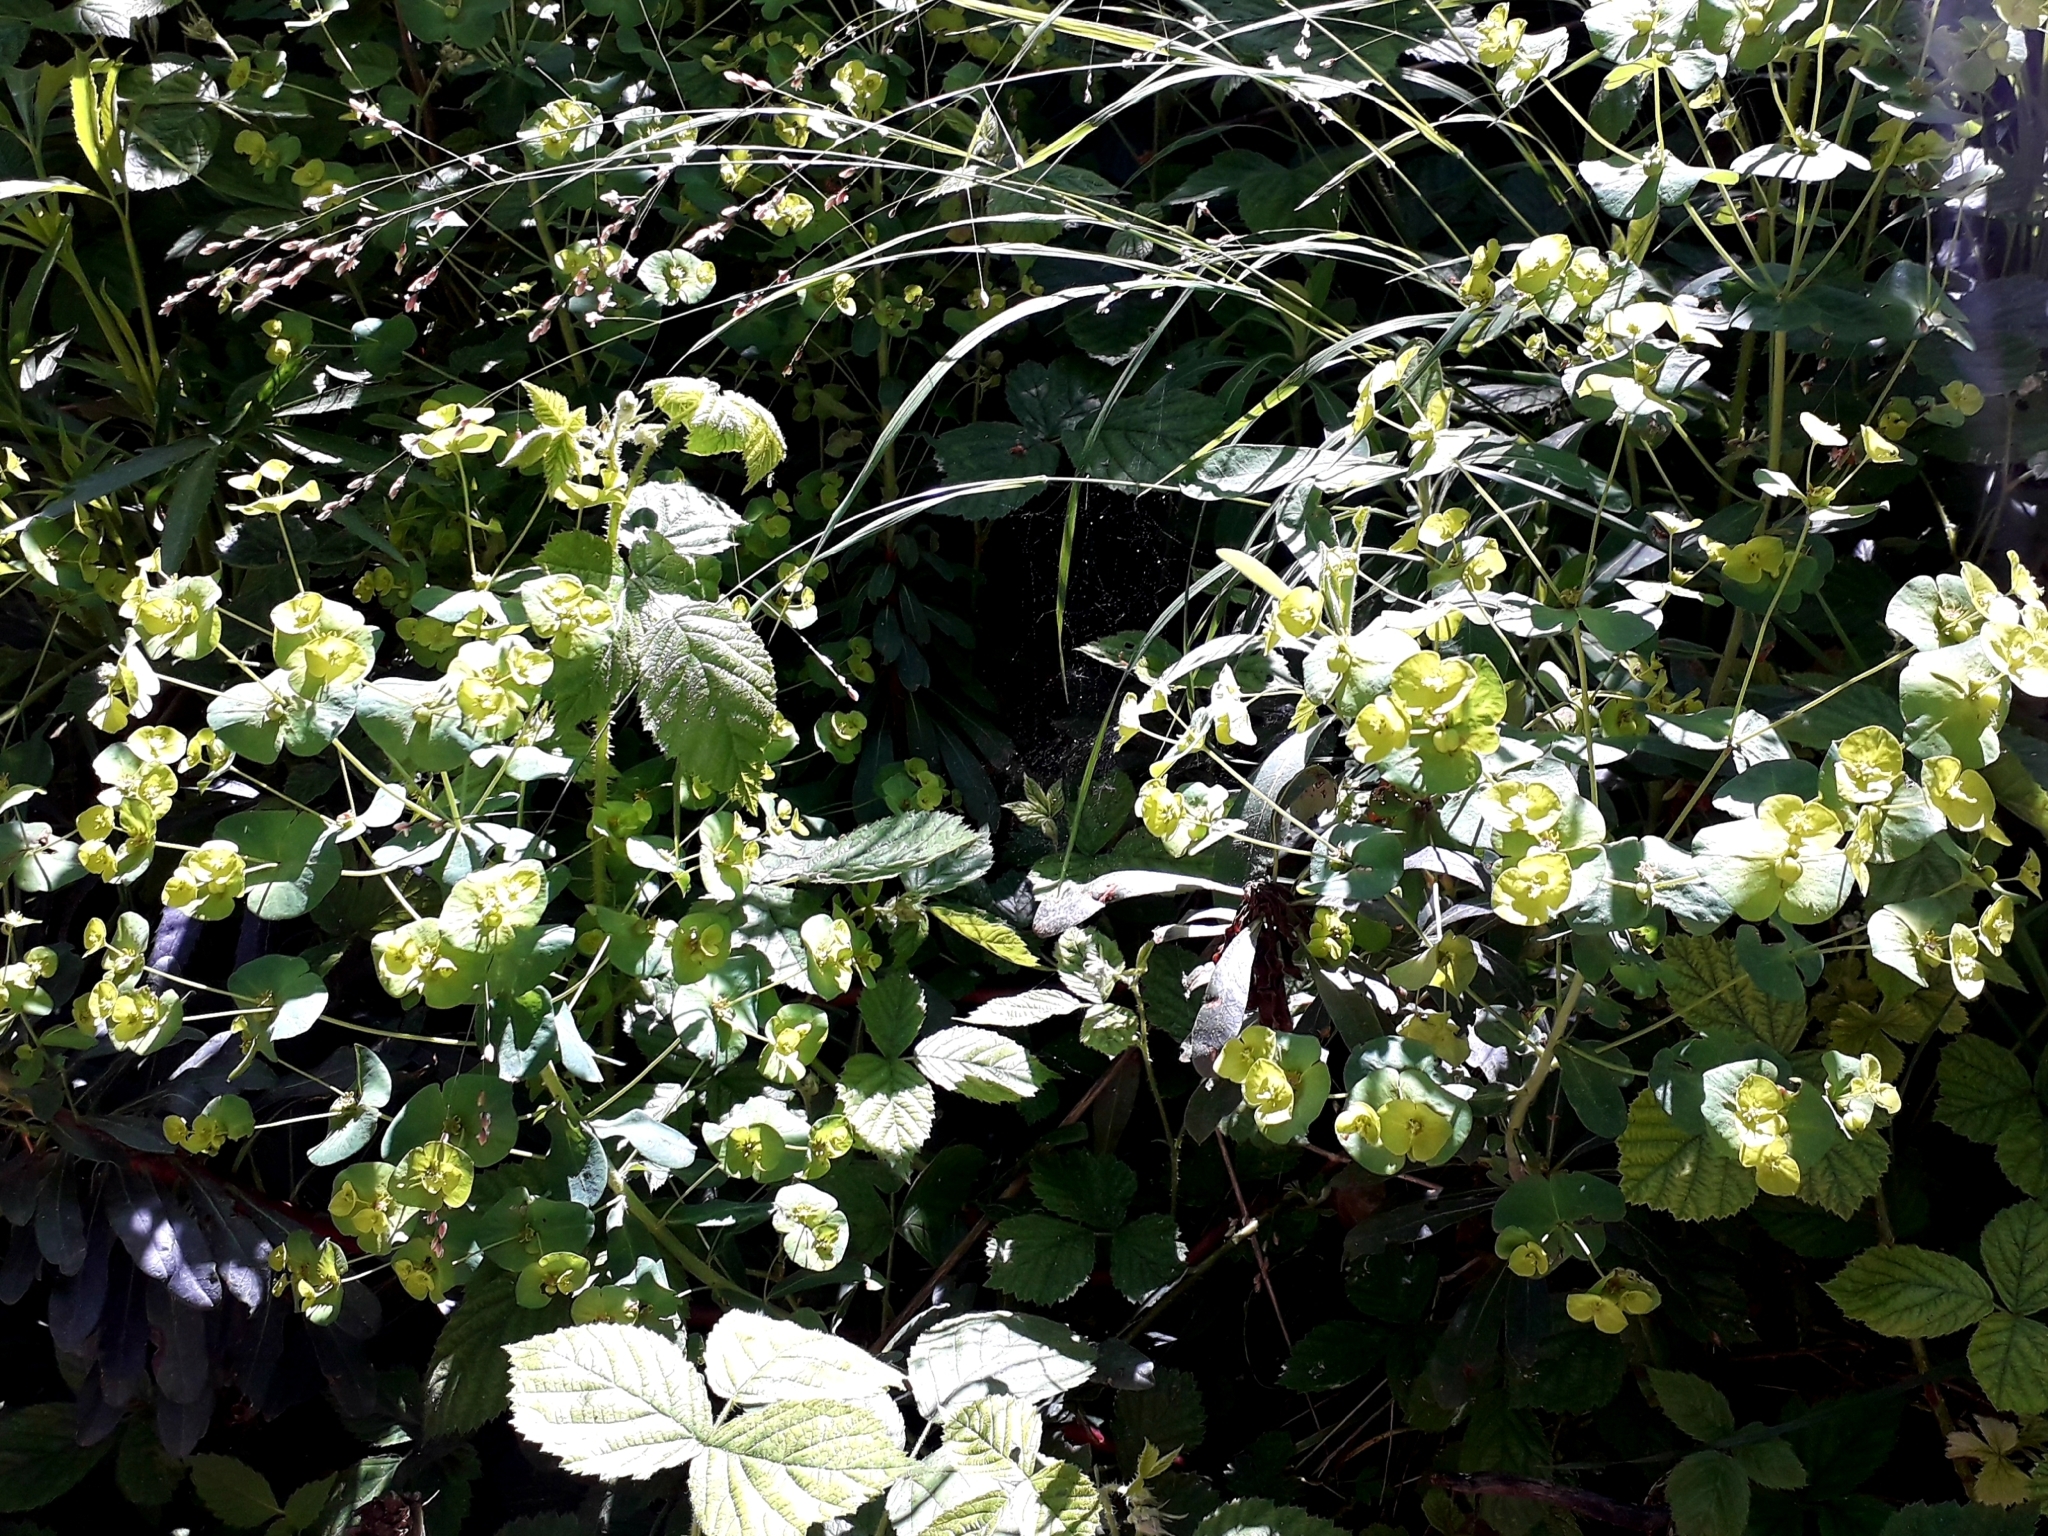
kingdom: Plantae
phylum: Tracheophyta
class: Magnoliopsida
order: Malpighiales
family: Euphorbiaceae
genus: Euphorbia
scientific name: Euphorbia amygdaloides
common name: Wood spurge
